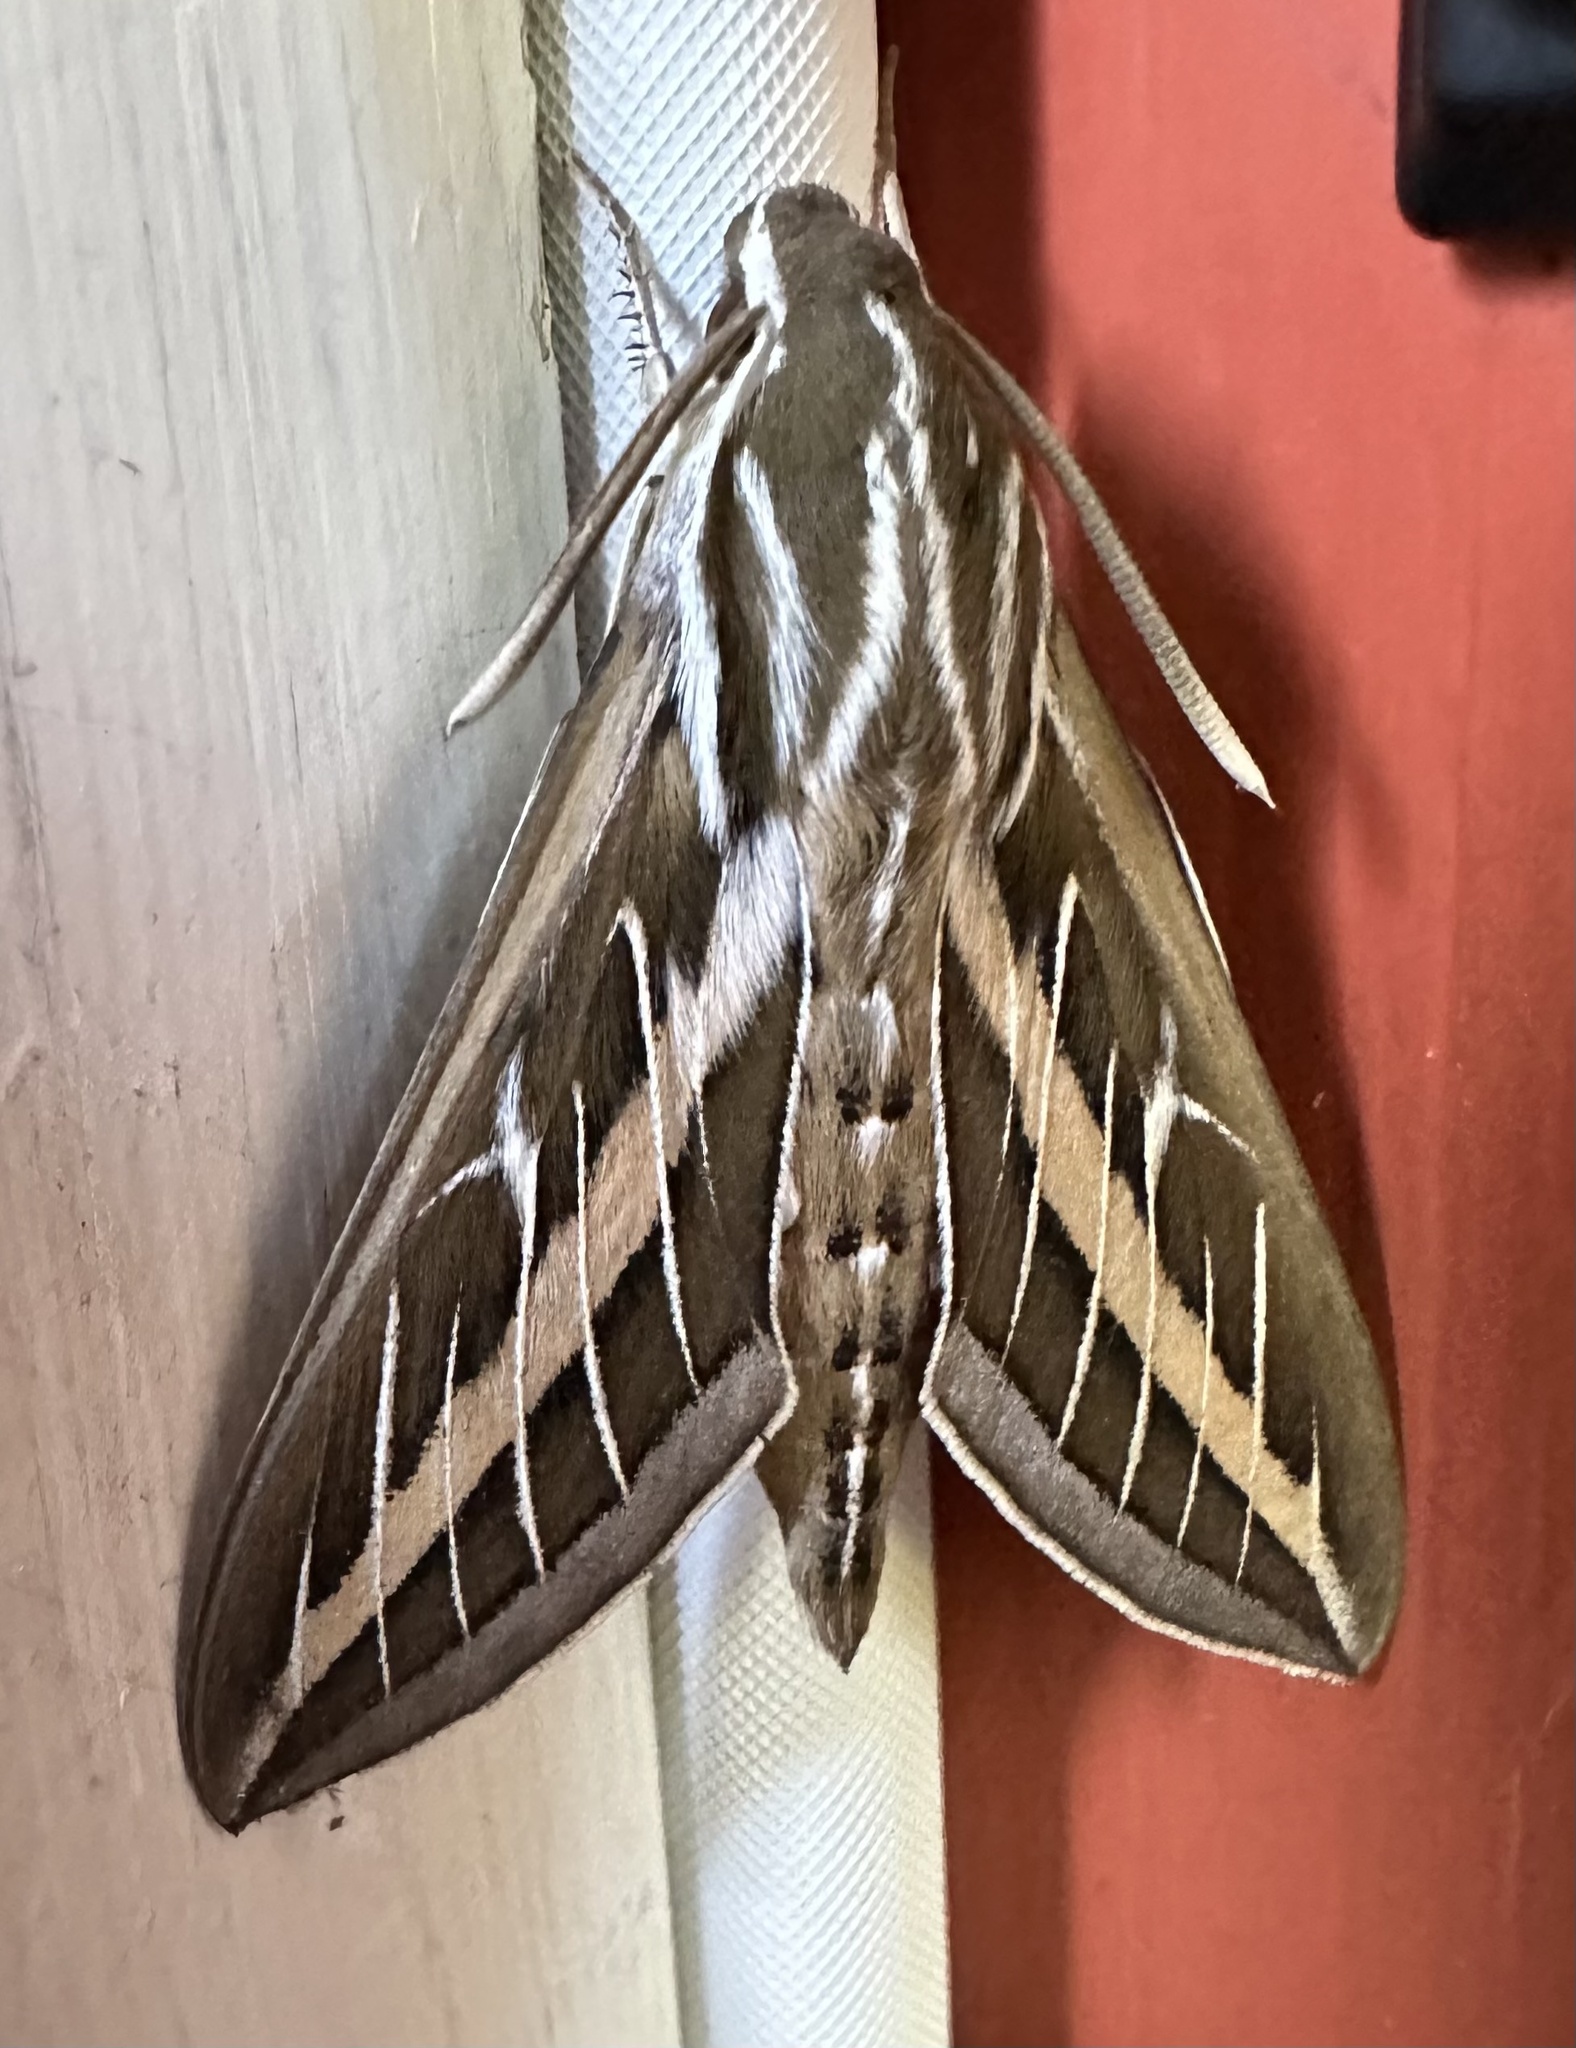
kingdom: Animalia
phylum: Arthropoda
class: Insecta
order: Lepidoptera
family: Sphingidae
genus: Hyles
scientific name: Hyles lineata
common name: White-lined sphinx
